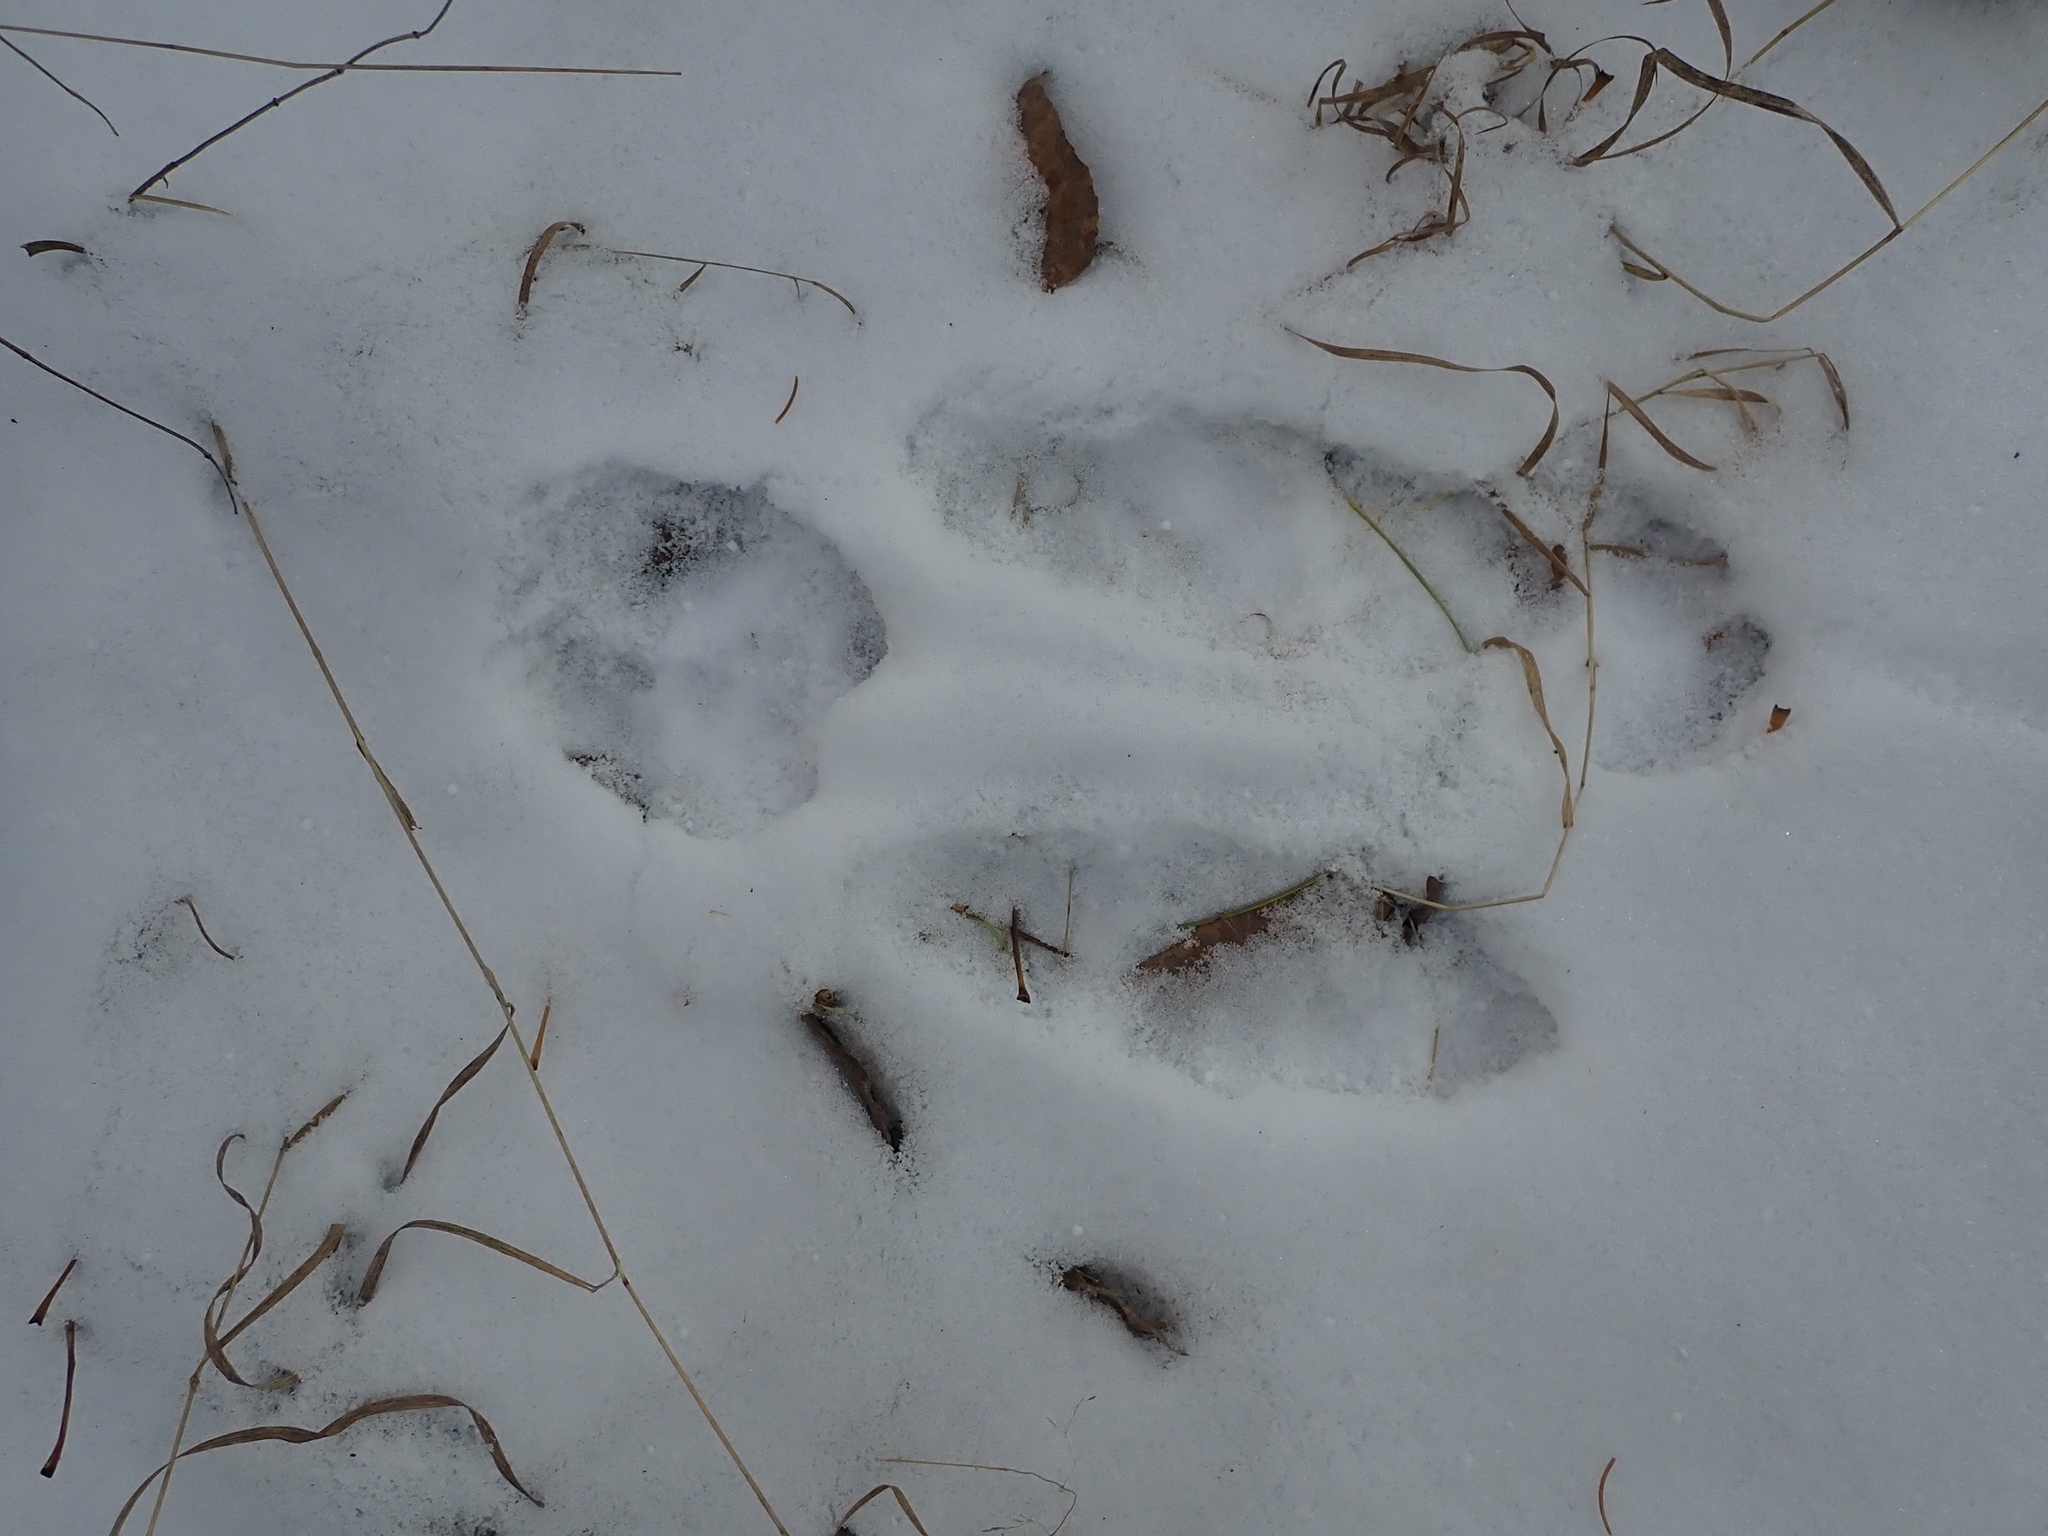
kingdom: Animalia
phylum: Chordata
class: Mammalia
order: Lagomorpha
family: Leporidae
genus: Lepus
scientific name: Lepus americanus
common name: Snowshoe hare
